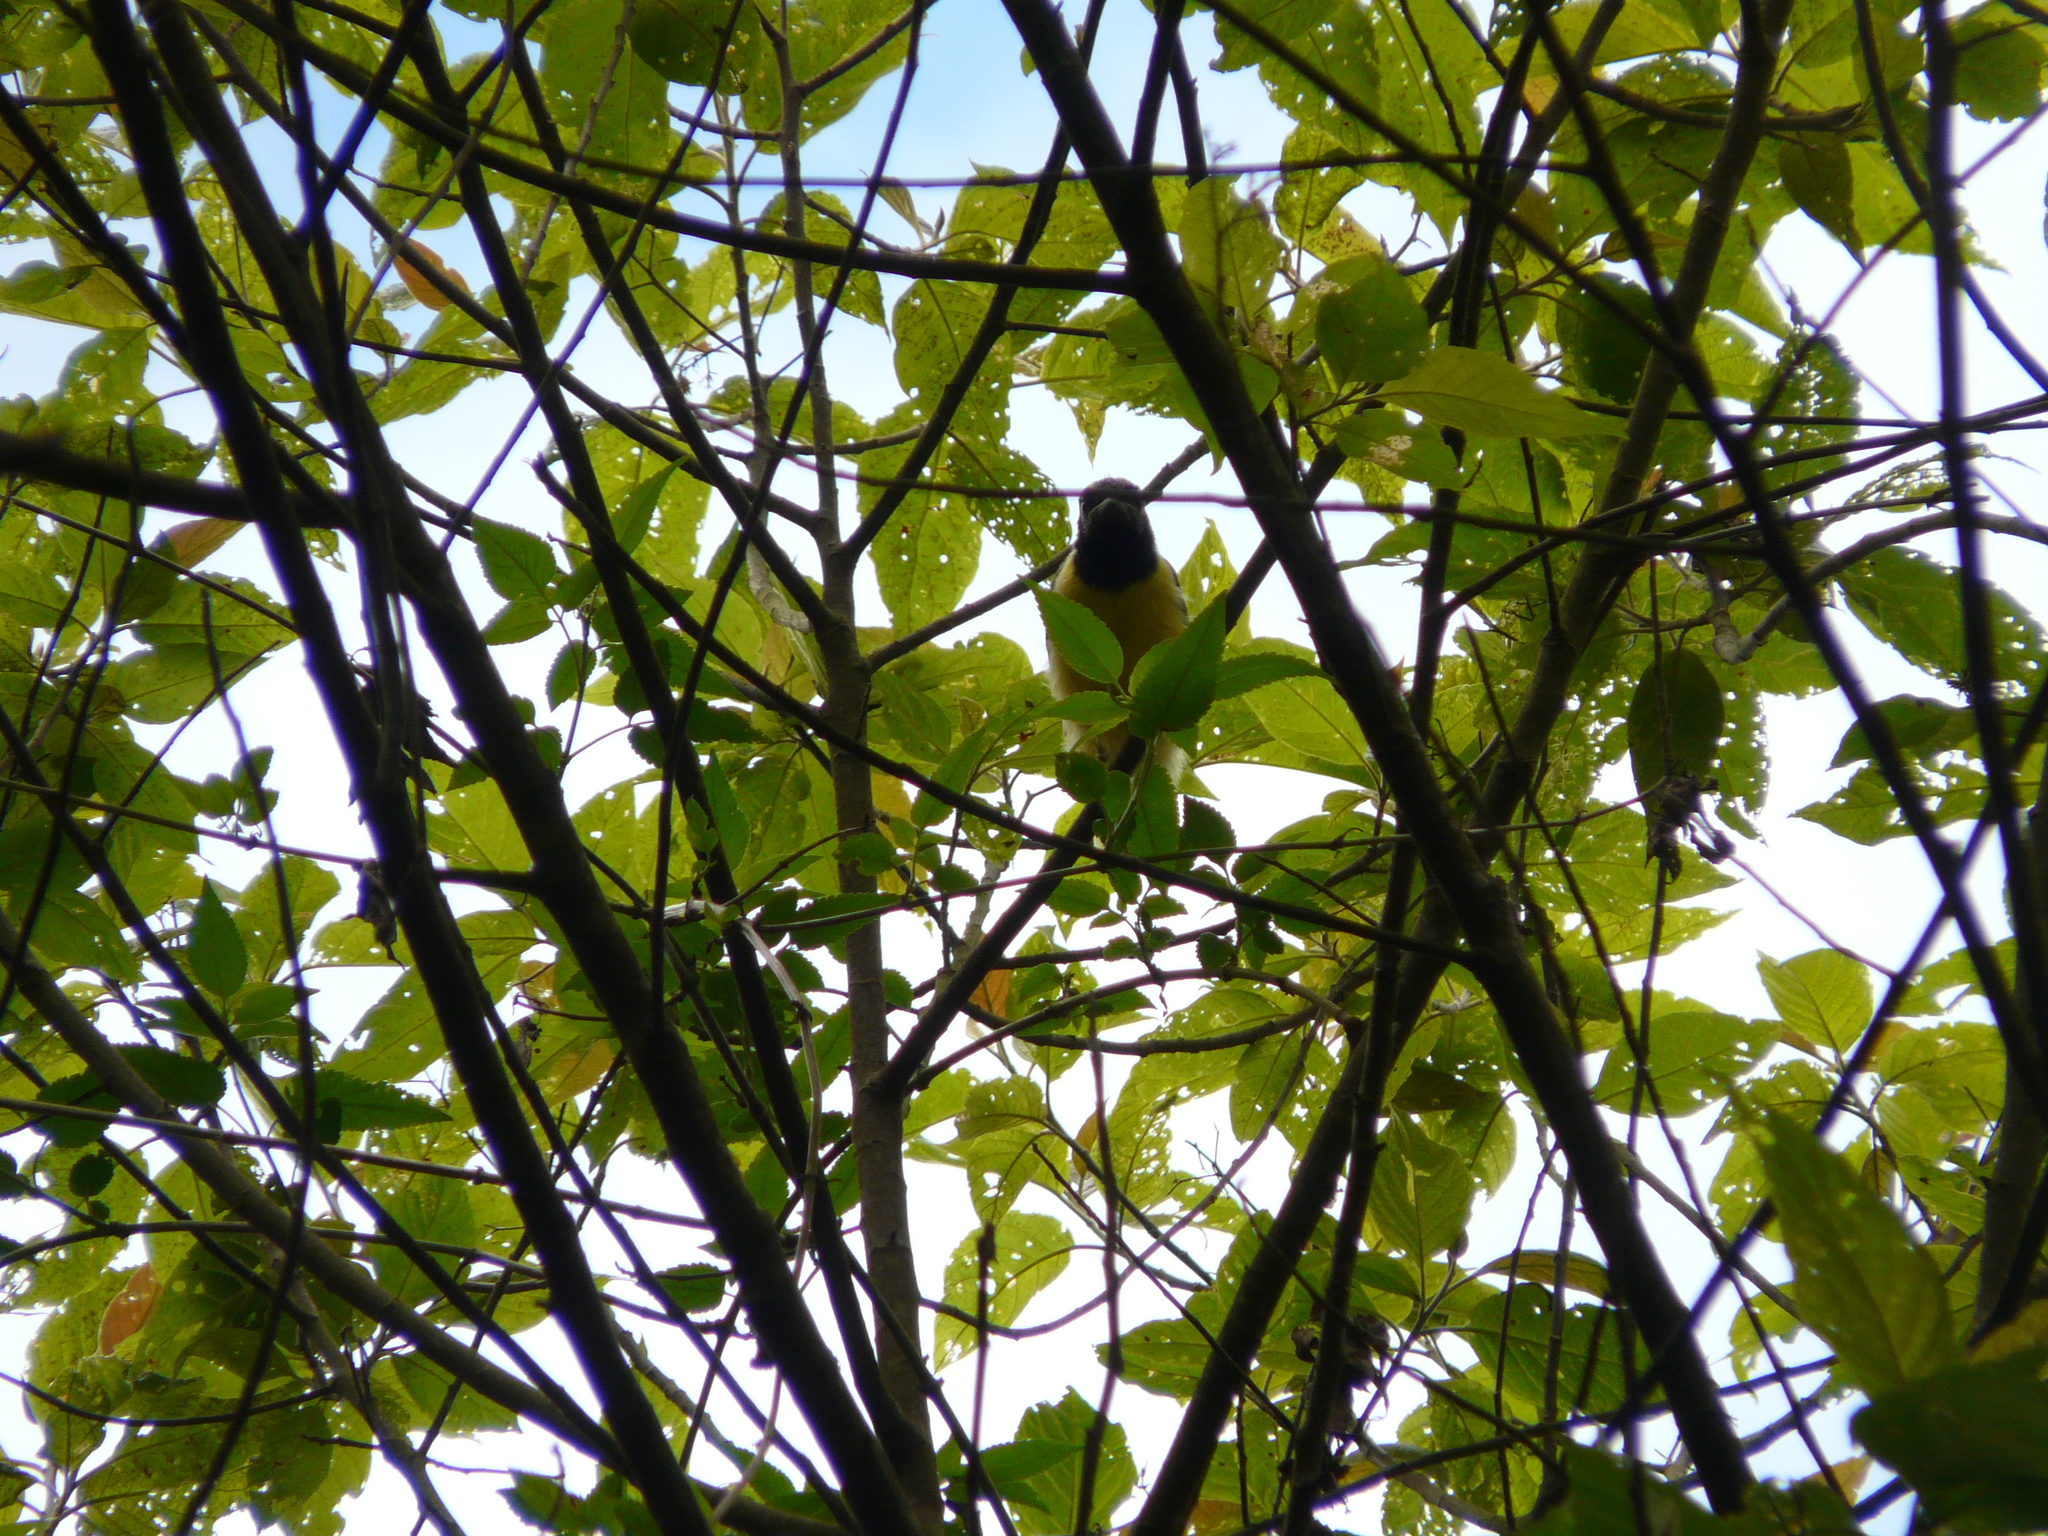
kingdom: Animalia
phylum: Chordata
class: Aves
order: Passeriformes
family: Corvidae
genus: Cyanocorax
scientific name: Cyanocorax yncas
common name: Green jay
